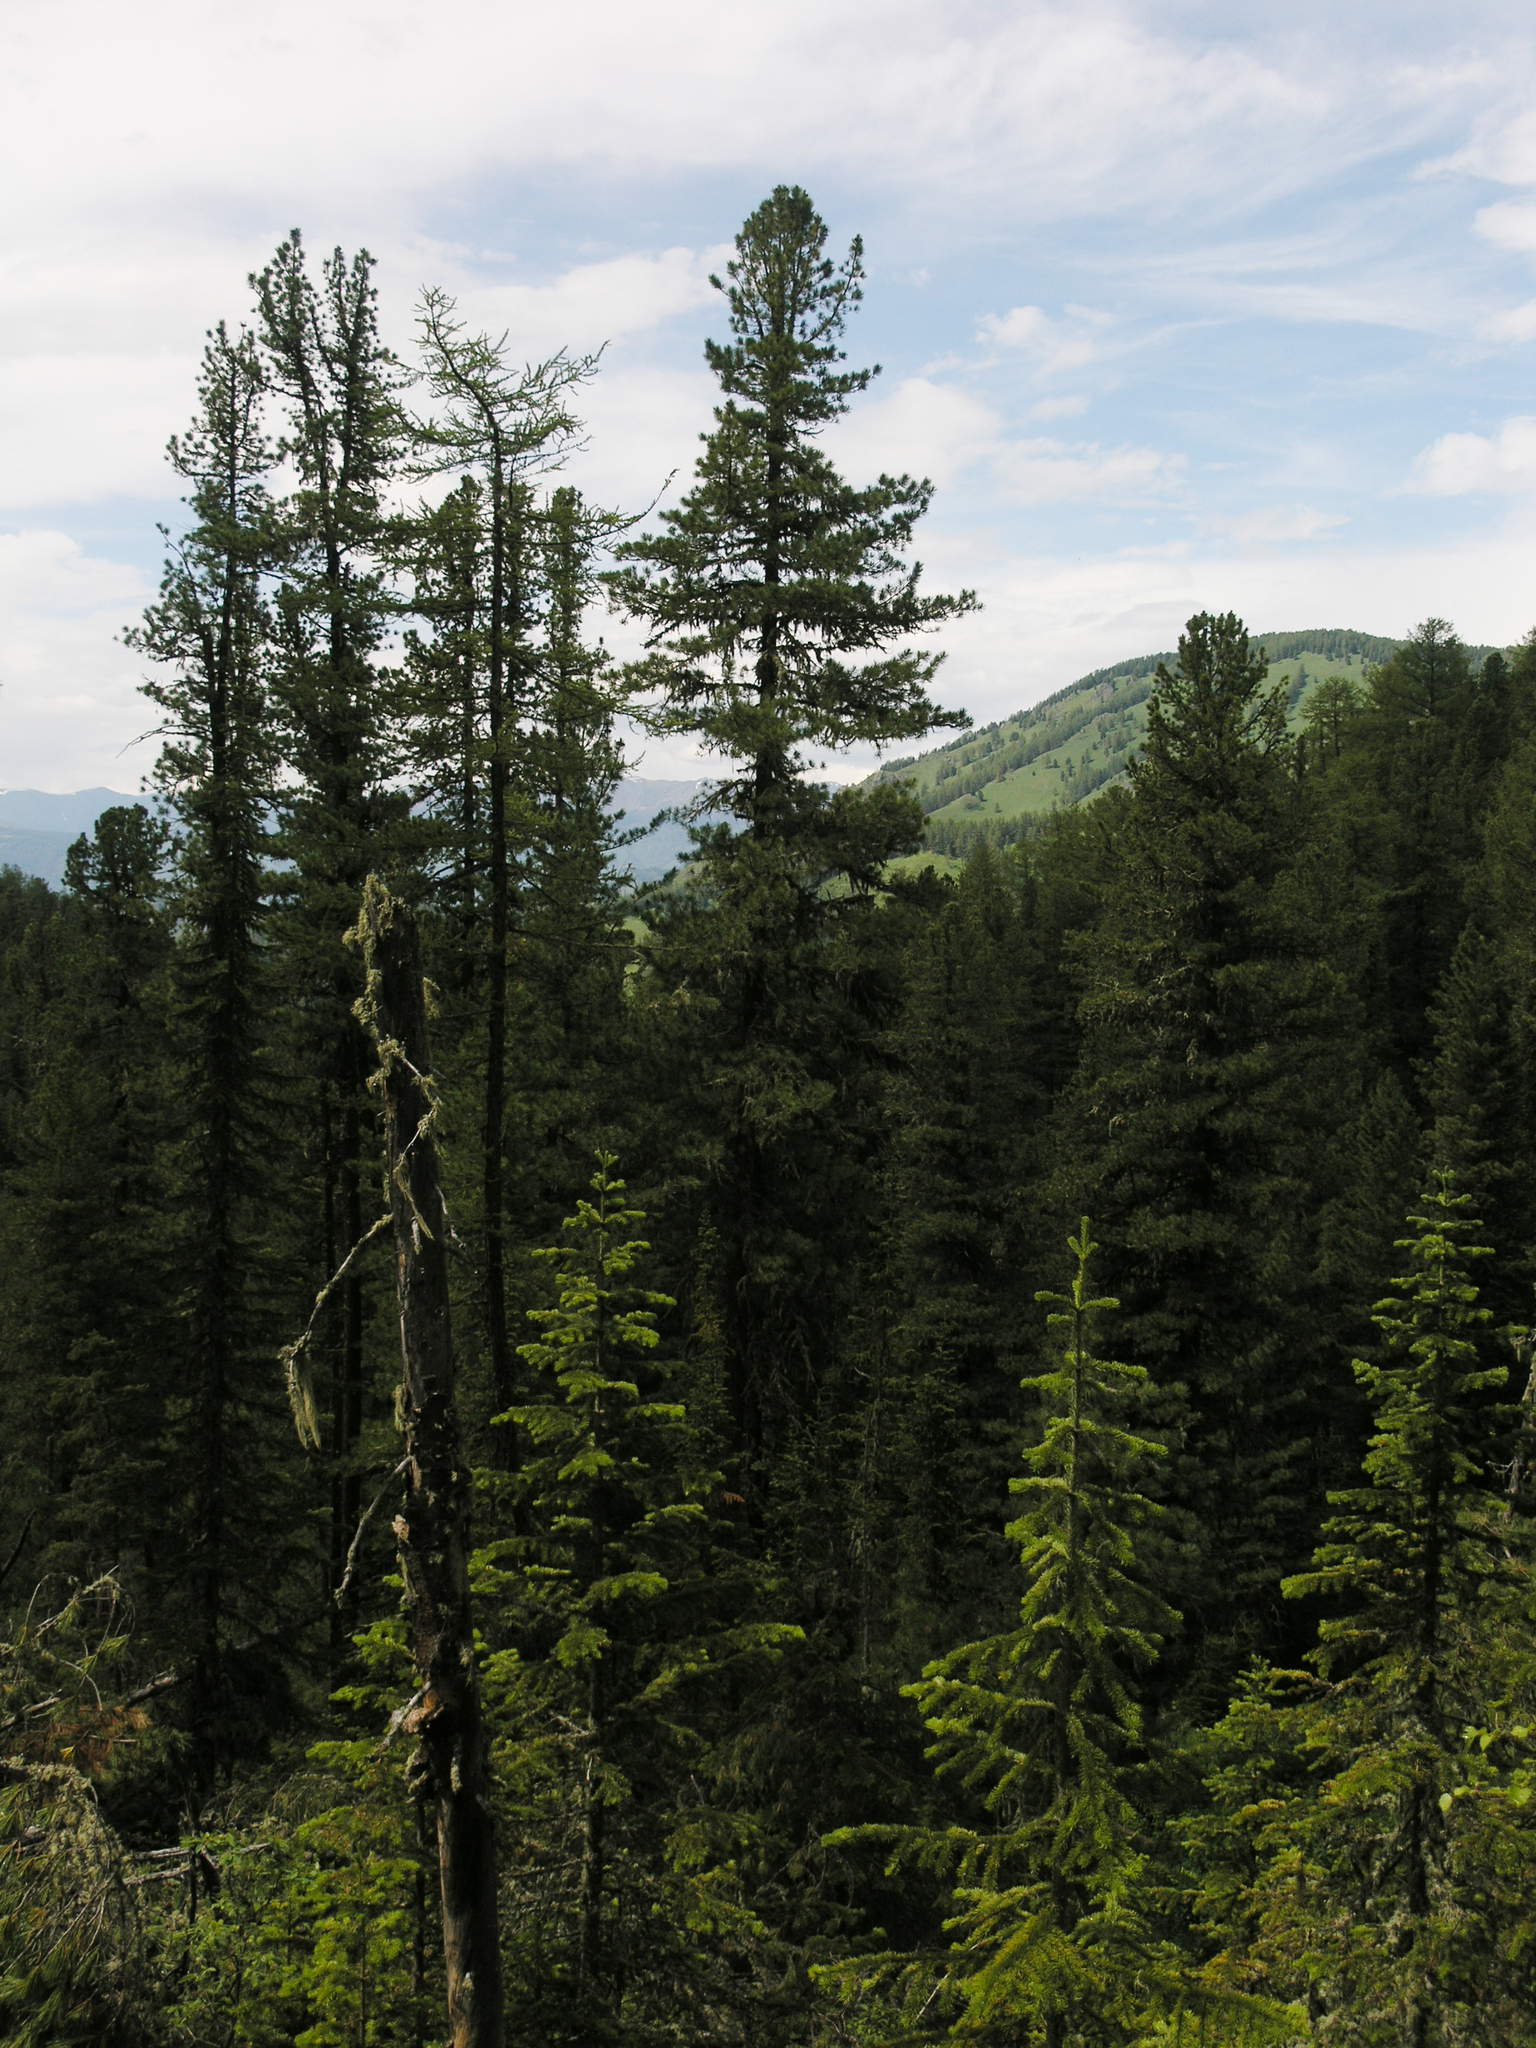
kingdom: Plantae
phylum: Tracheophyta
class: Pinopsida
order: Pinales
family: Pinaceae
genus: Larix
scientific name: Larix sibirica
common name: Siberian larch
